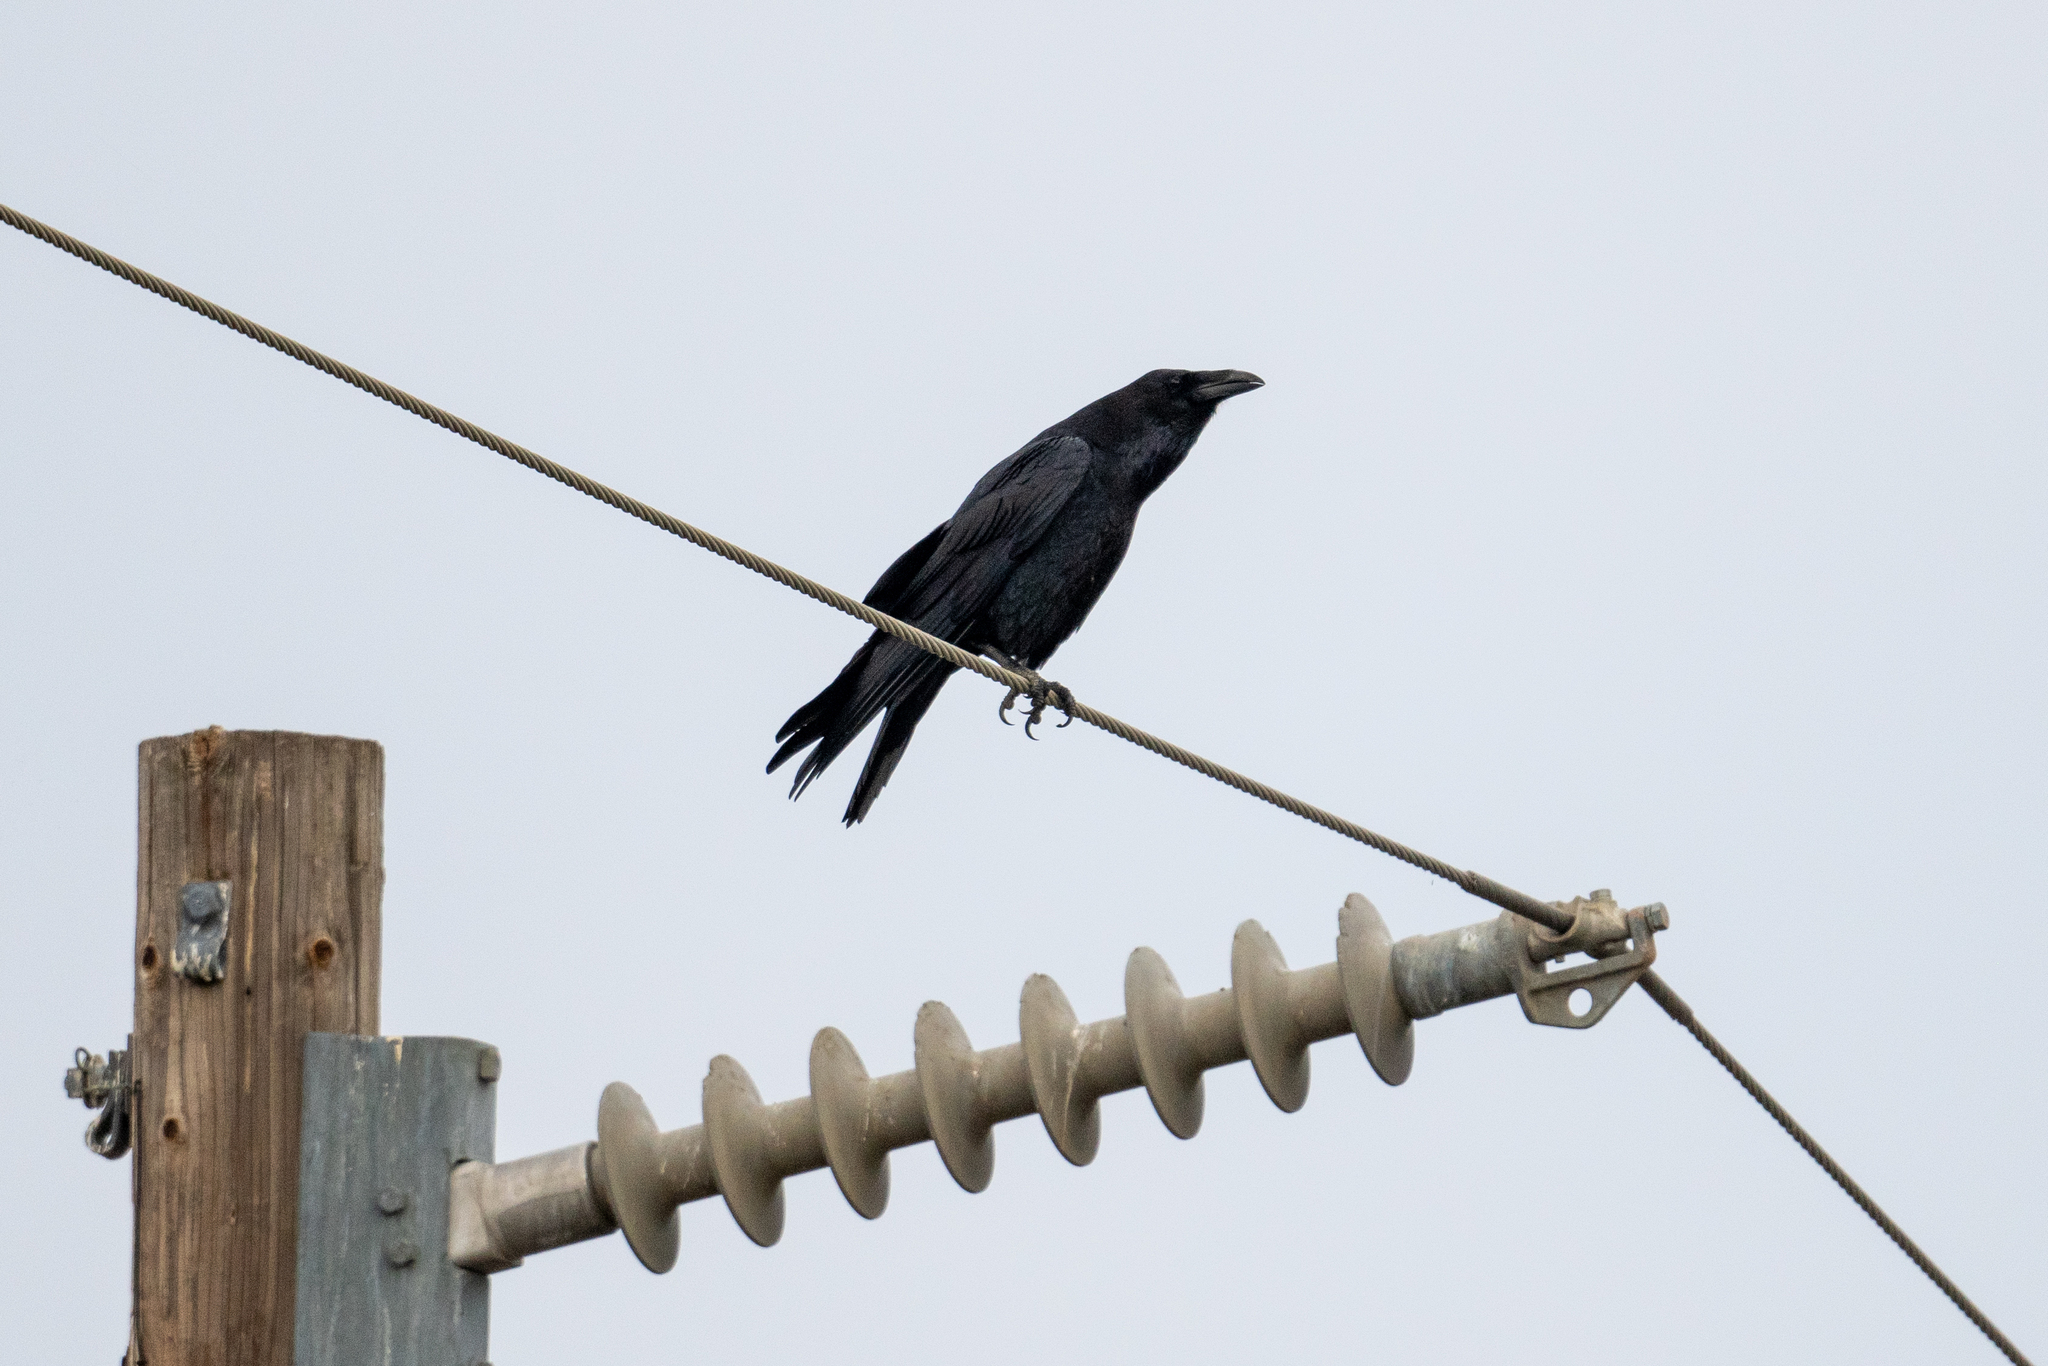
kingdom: Animalia
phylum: Chordata
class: Aves
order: Passeriformes
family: Corvidae
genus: Corvus
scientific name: Corvus corax
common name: Common raven
